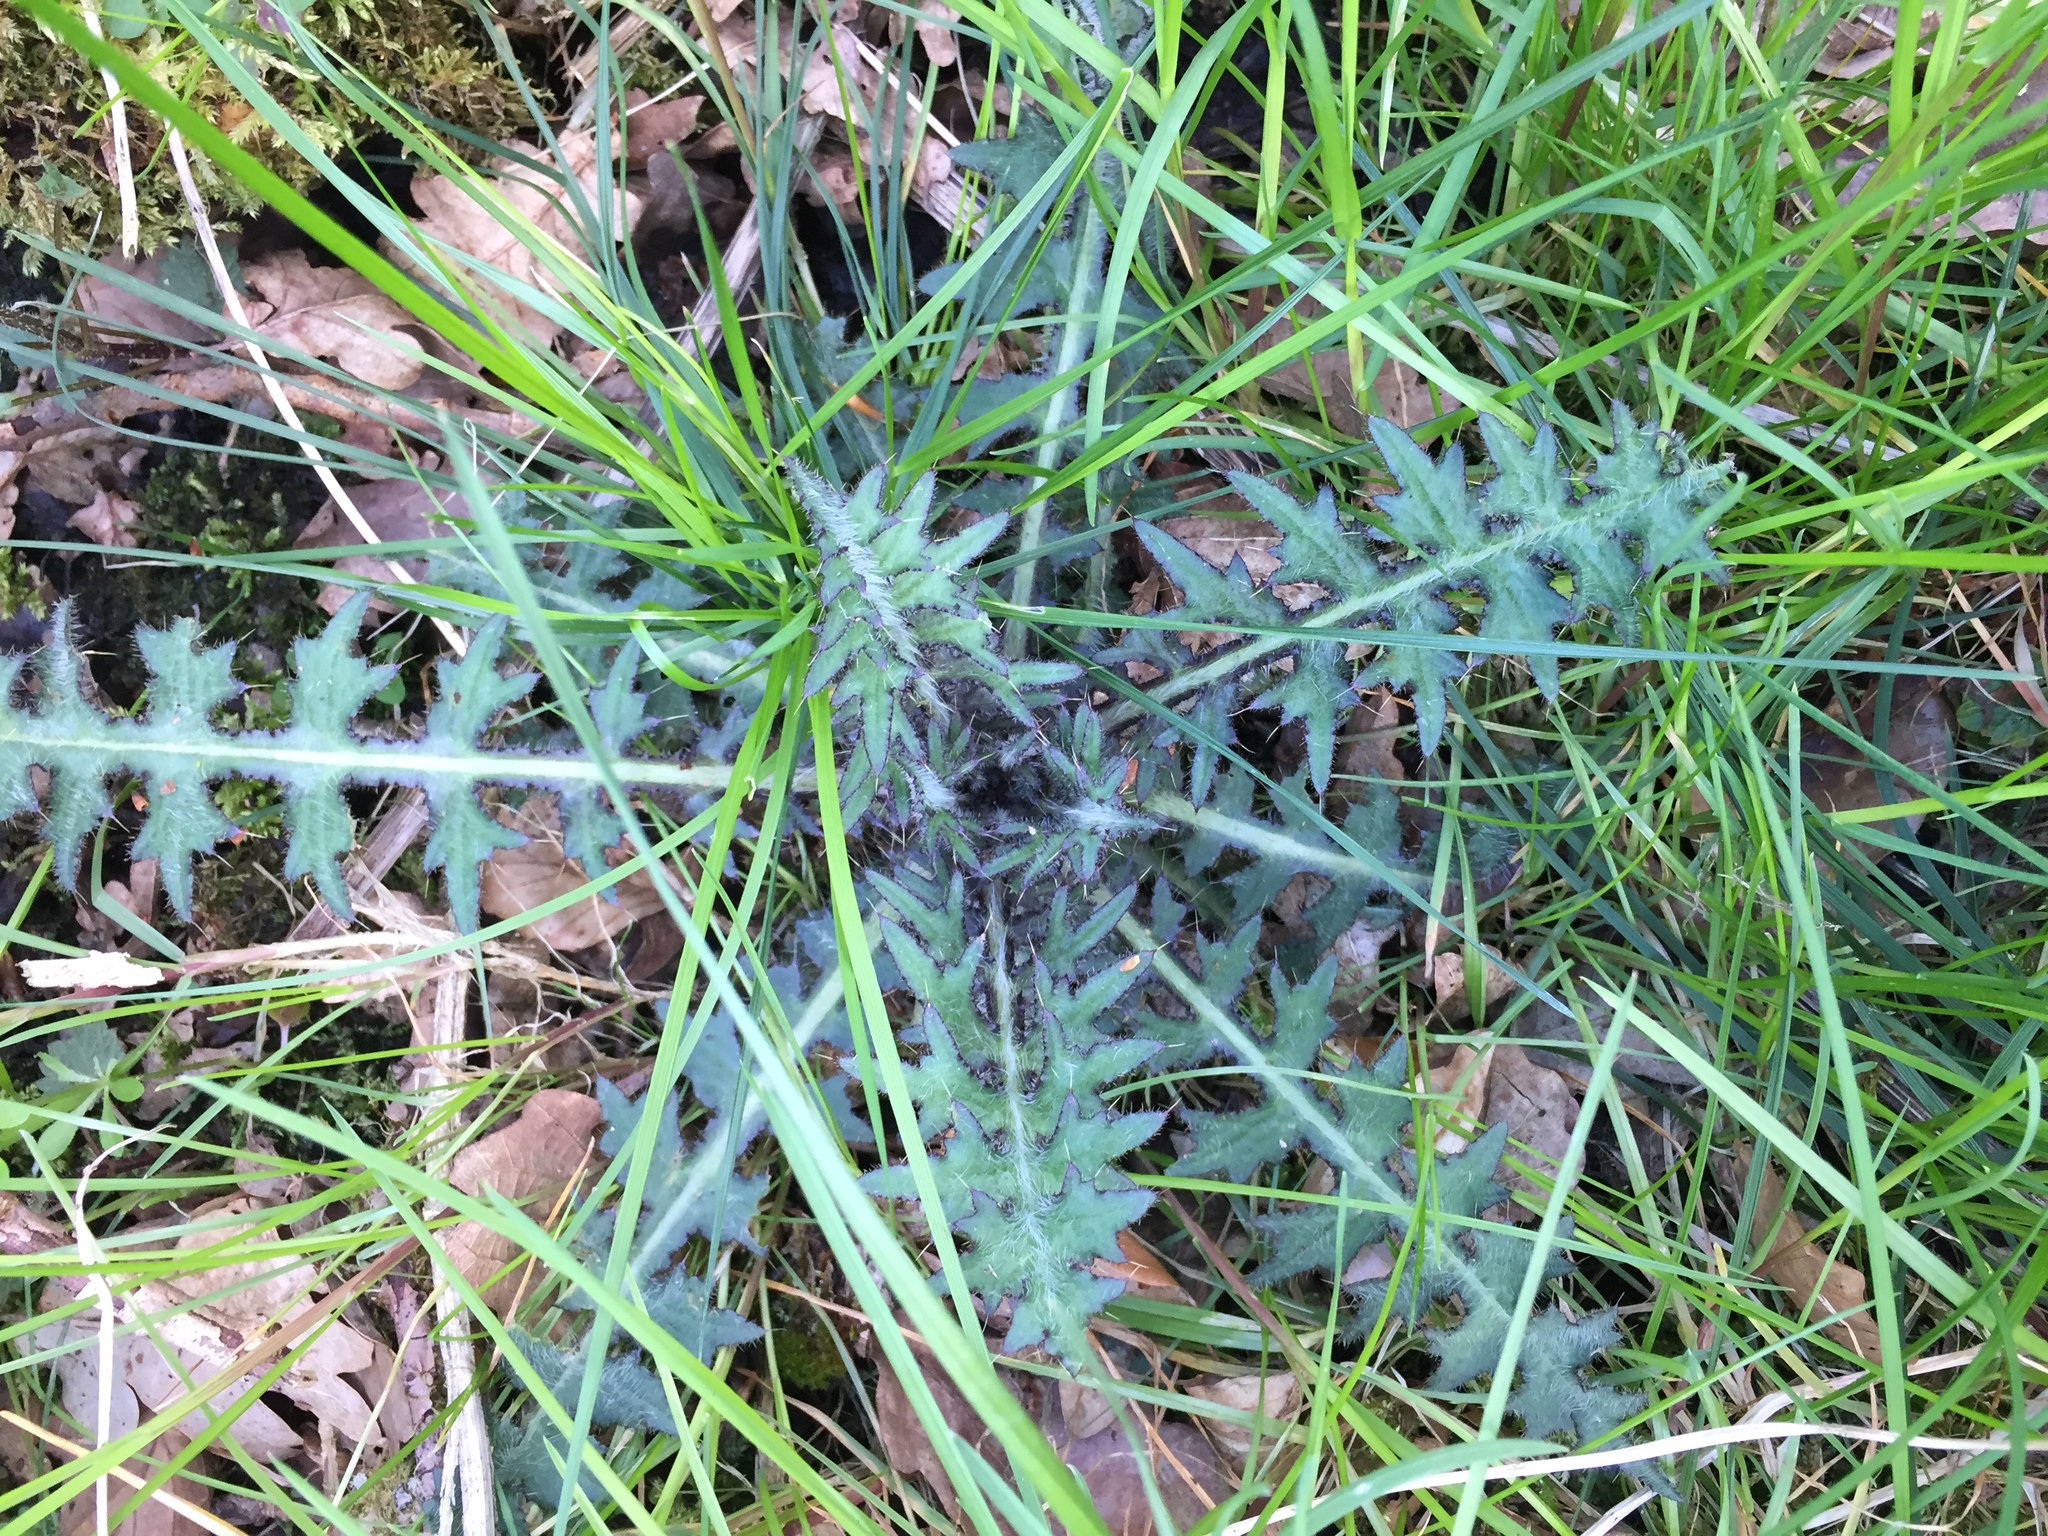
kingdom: Plantae
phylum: Tracheophyta
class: Magnoliopsida
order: Asterales
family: Asteraceae
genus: Cirsium
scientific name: Cirsium palustre
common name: Marsh thistle
